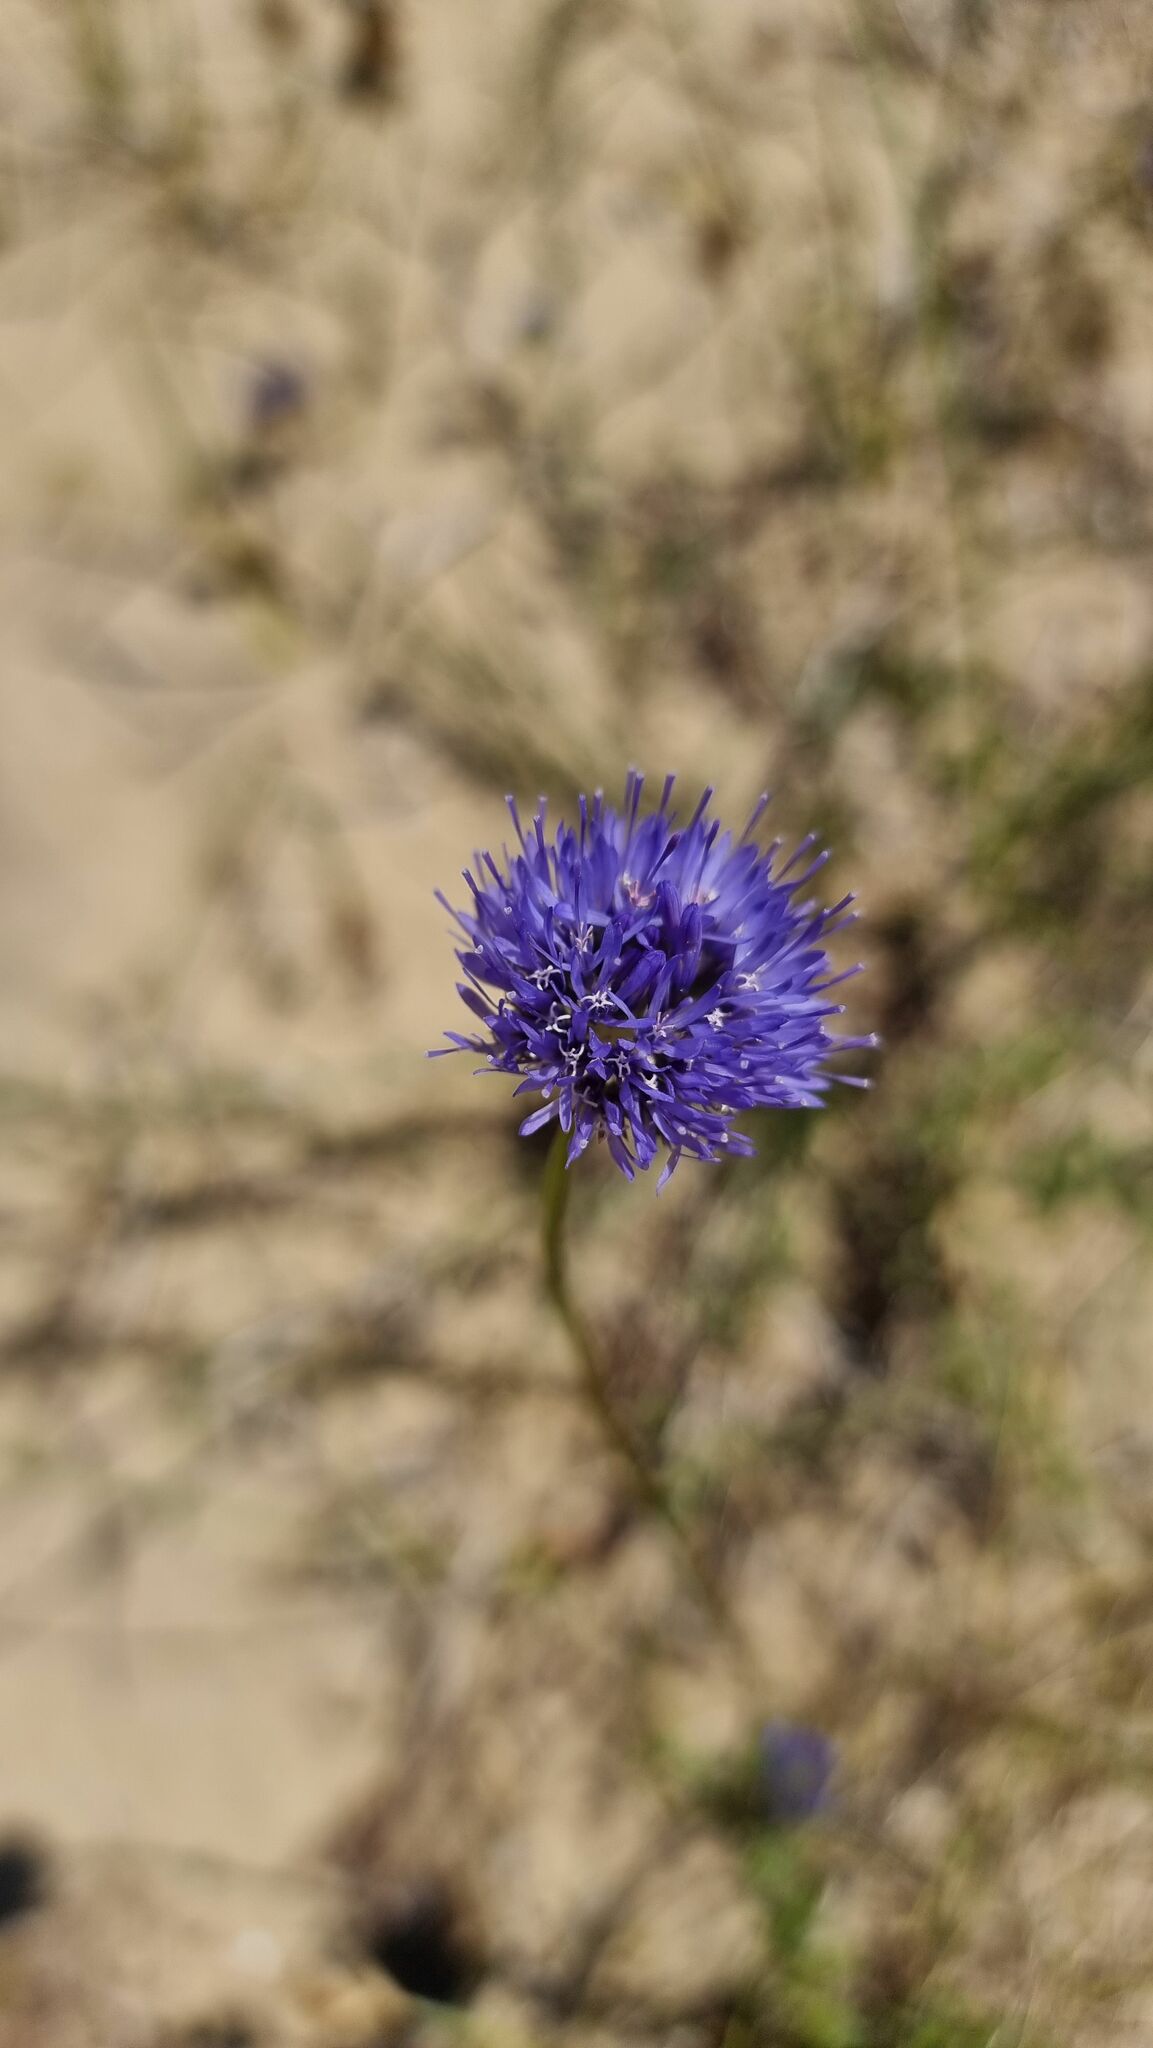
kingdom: Plantae
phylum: Tracheophyta
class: Magnoliopsida
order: Asterales
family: Campanulaceae
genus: Jasione
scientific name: Jasione montana
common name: Sheep's-bit
